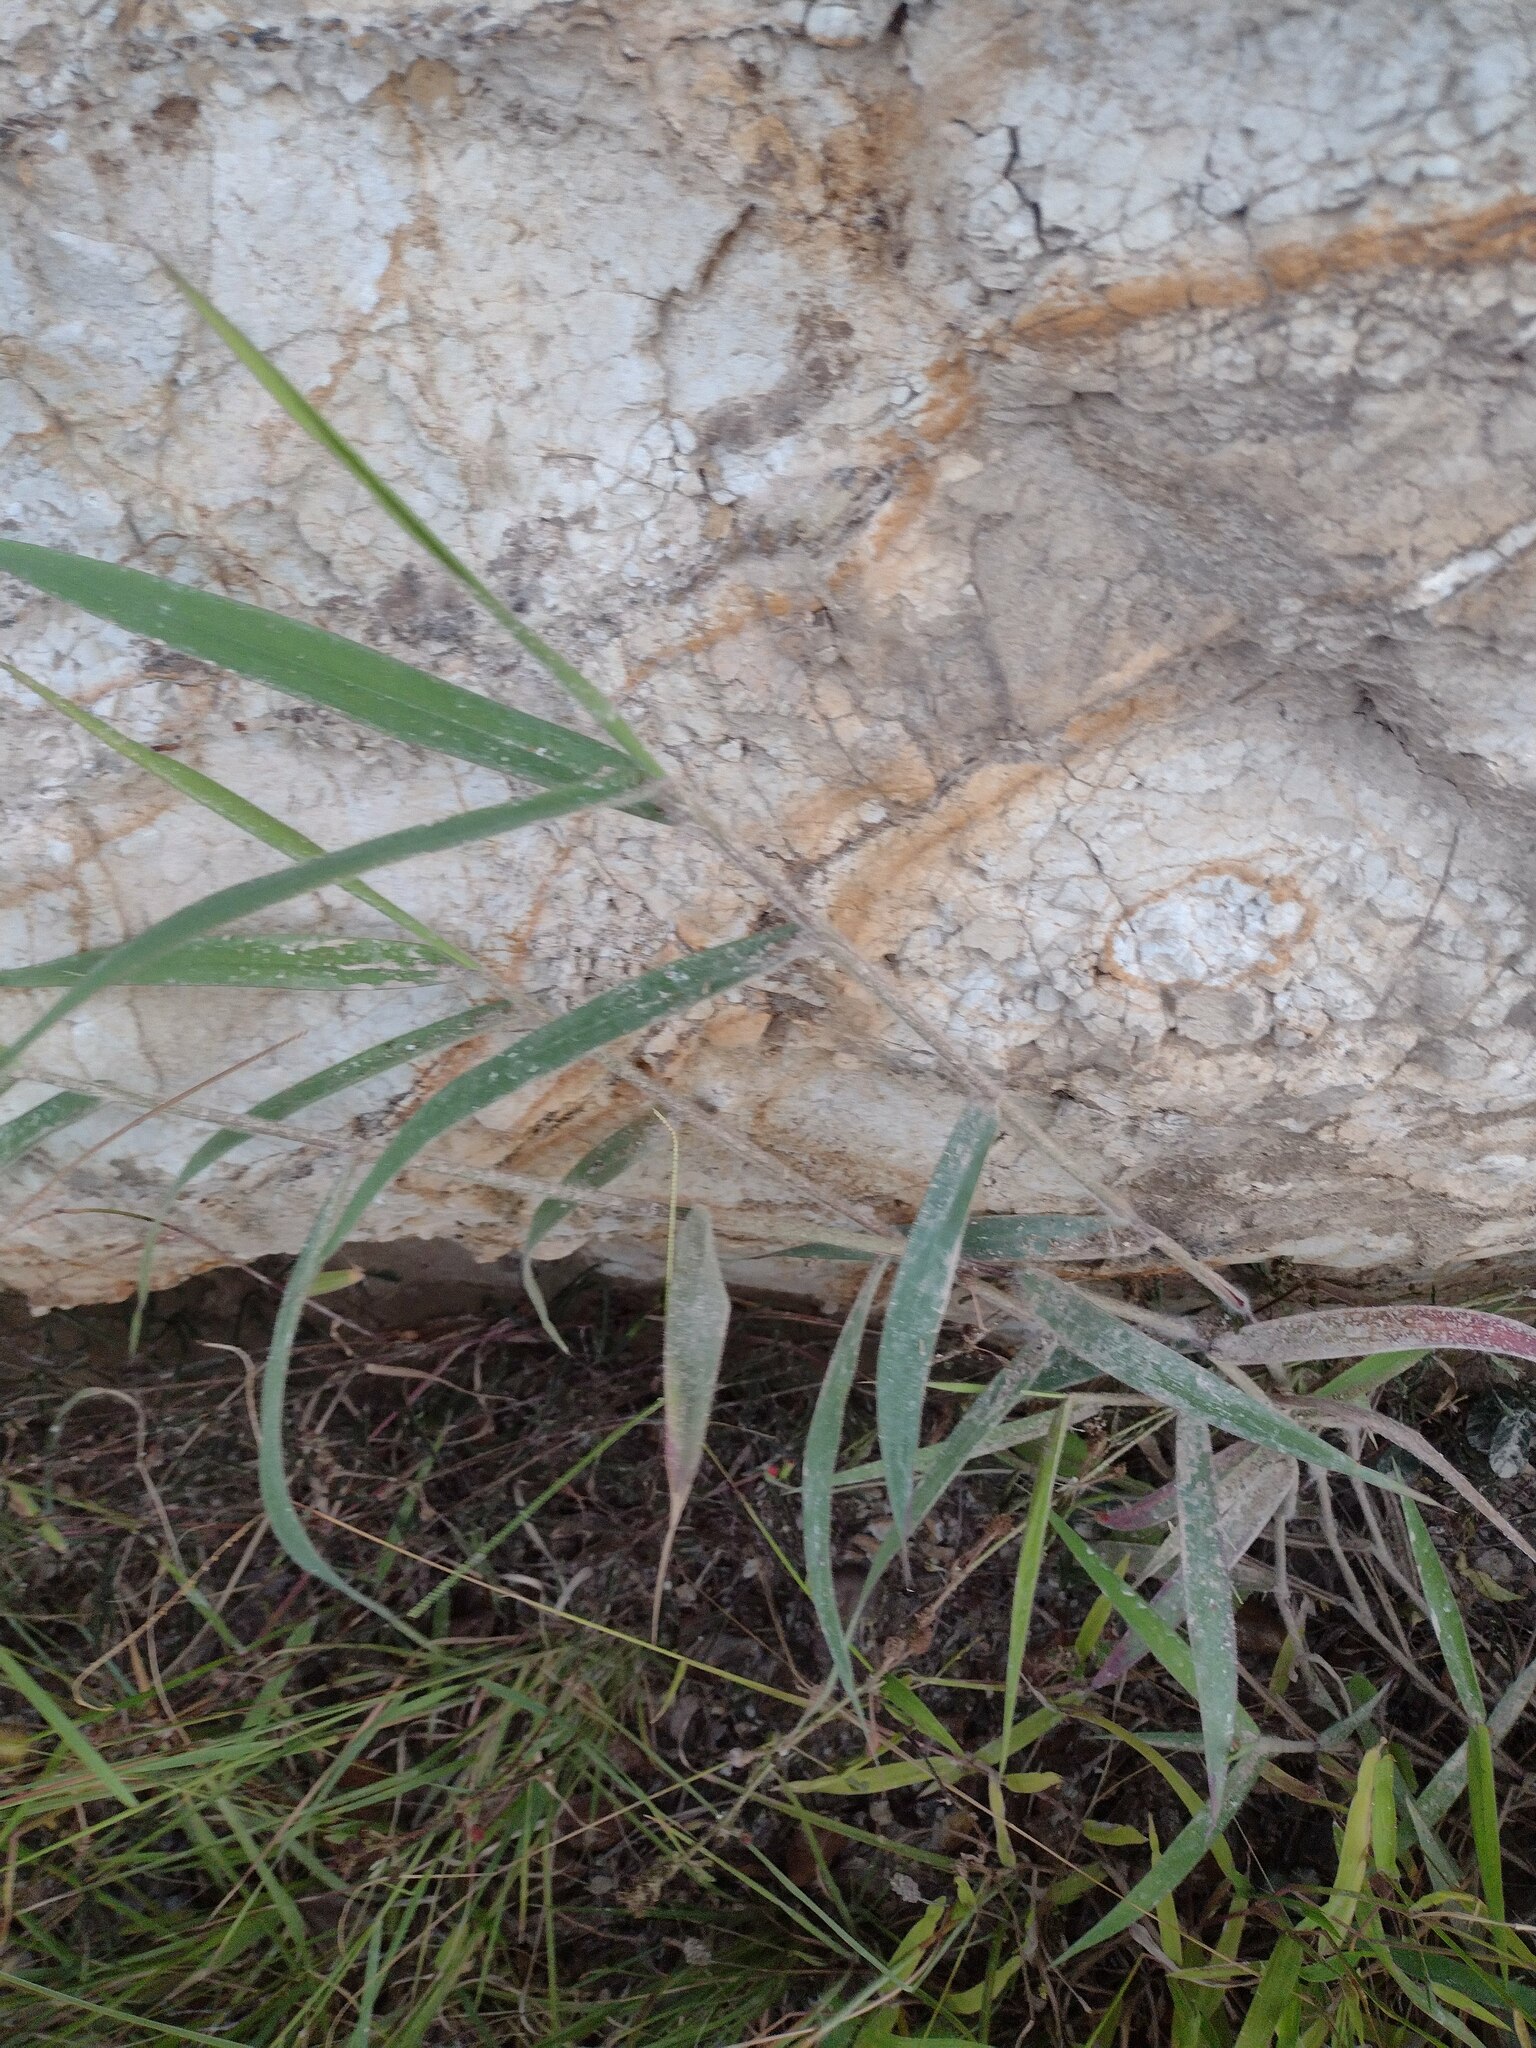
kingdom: Plantae
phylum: Tracheophyta
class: Liliopsida
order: Poales
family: Poaceae
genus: Melinis
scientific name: Melinis minutiflora
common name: Molassesgrass
